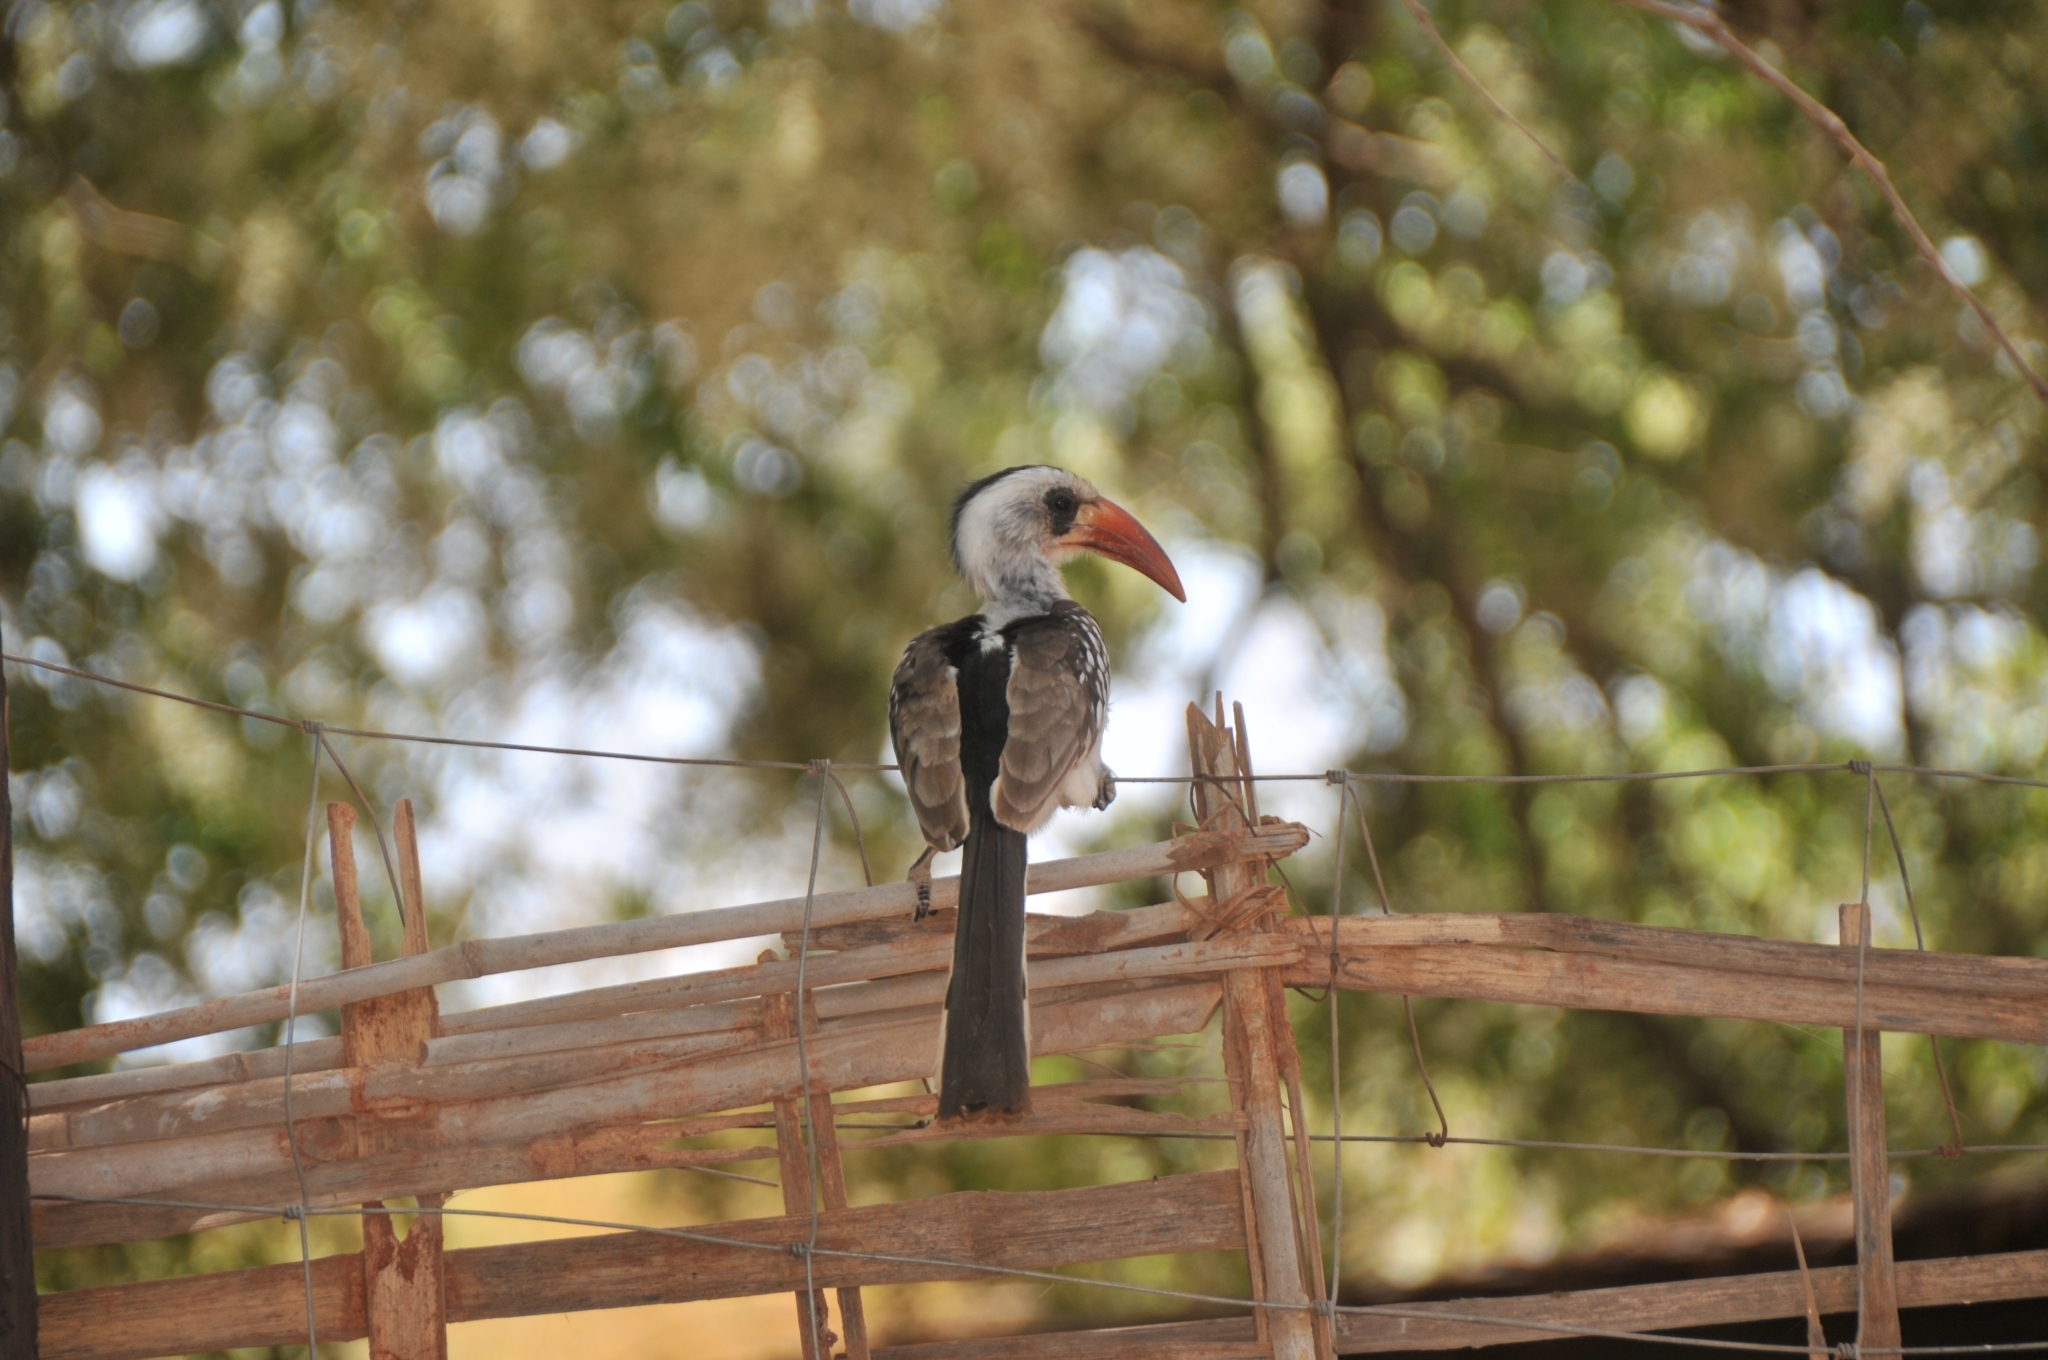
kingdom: Animalia
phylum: Chordata
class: Aves
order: Bucerotiformes
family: Bucerotidae
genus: Tockus
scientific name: Tockus kempi
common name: Western red-billed hornbill
